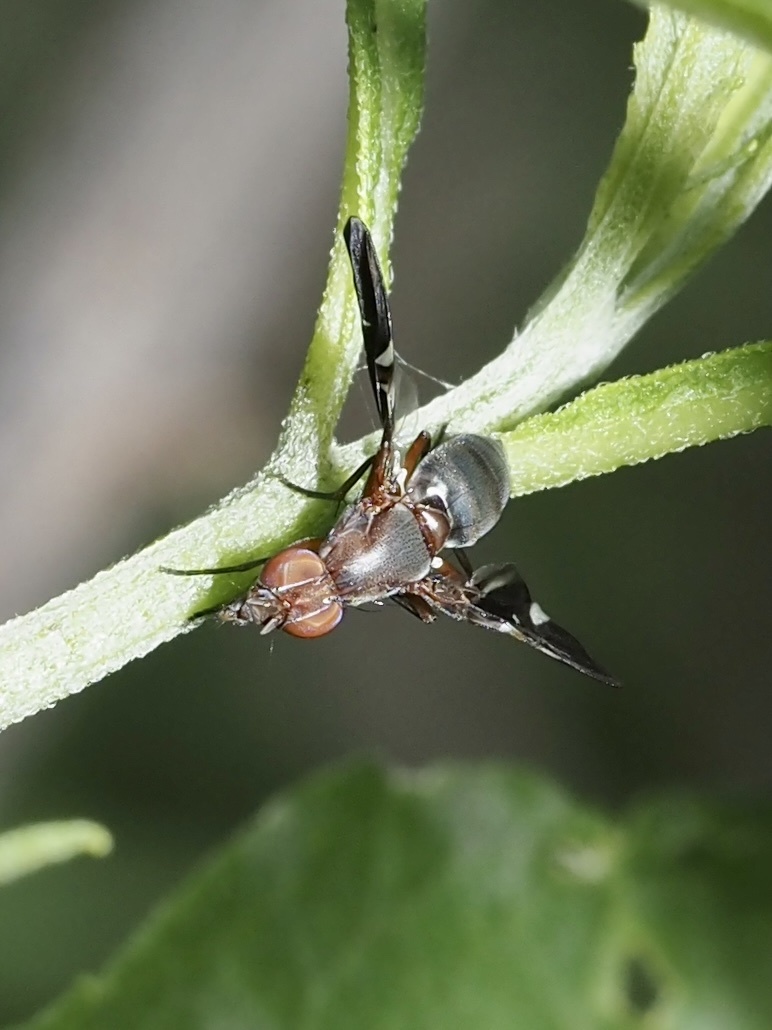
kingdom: Animalia
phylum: Arthropoda
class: Insecta
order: Diptera
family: Ulidiidae
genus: Delphinia
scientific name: Delphinia picta
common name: Common picture-winged fly
